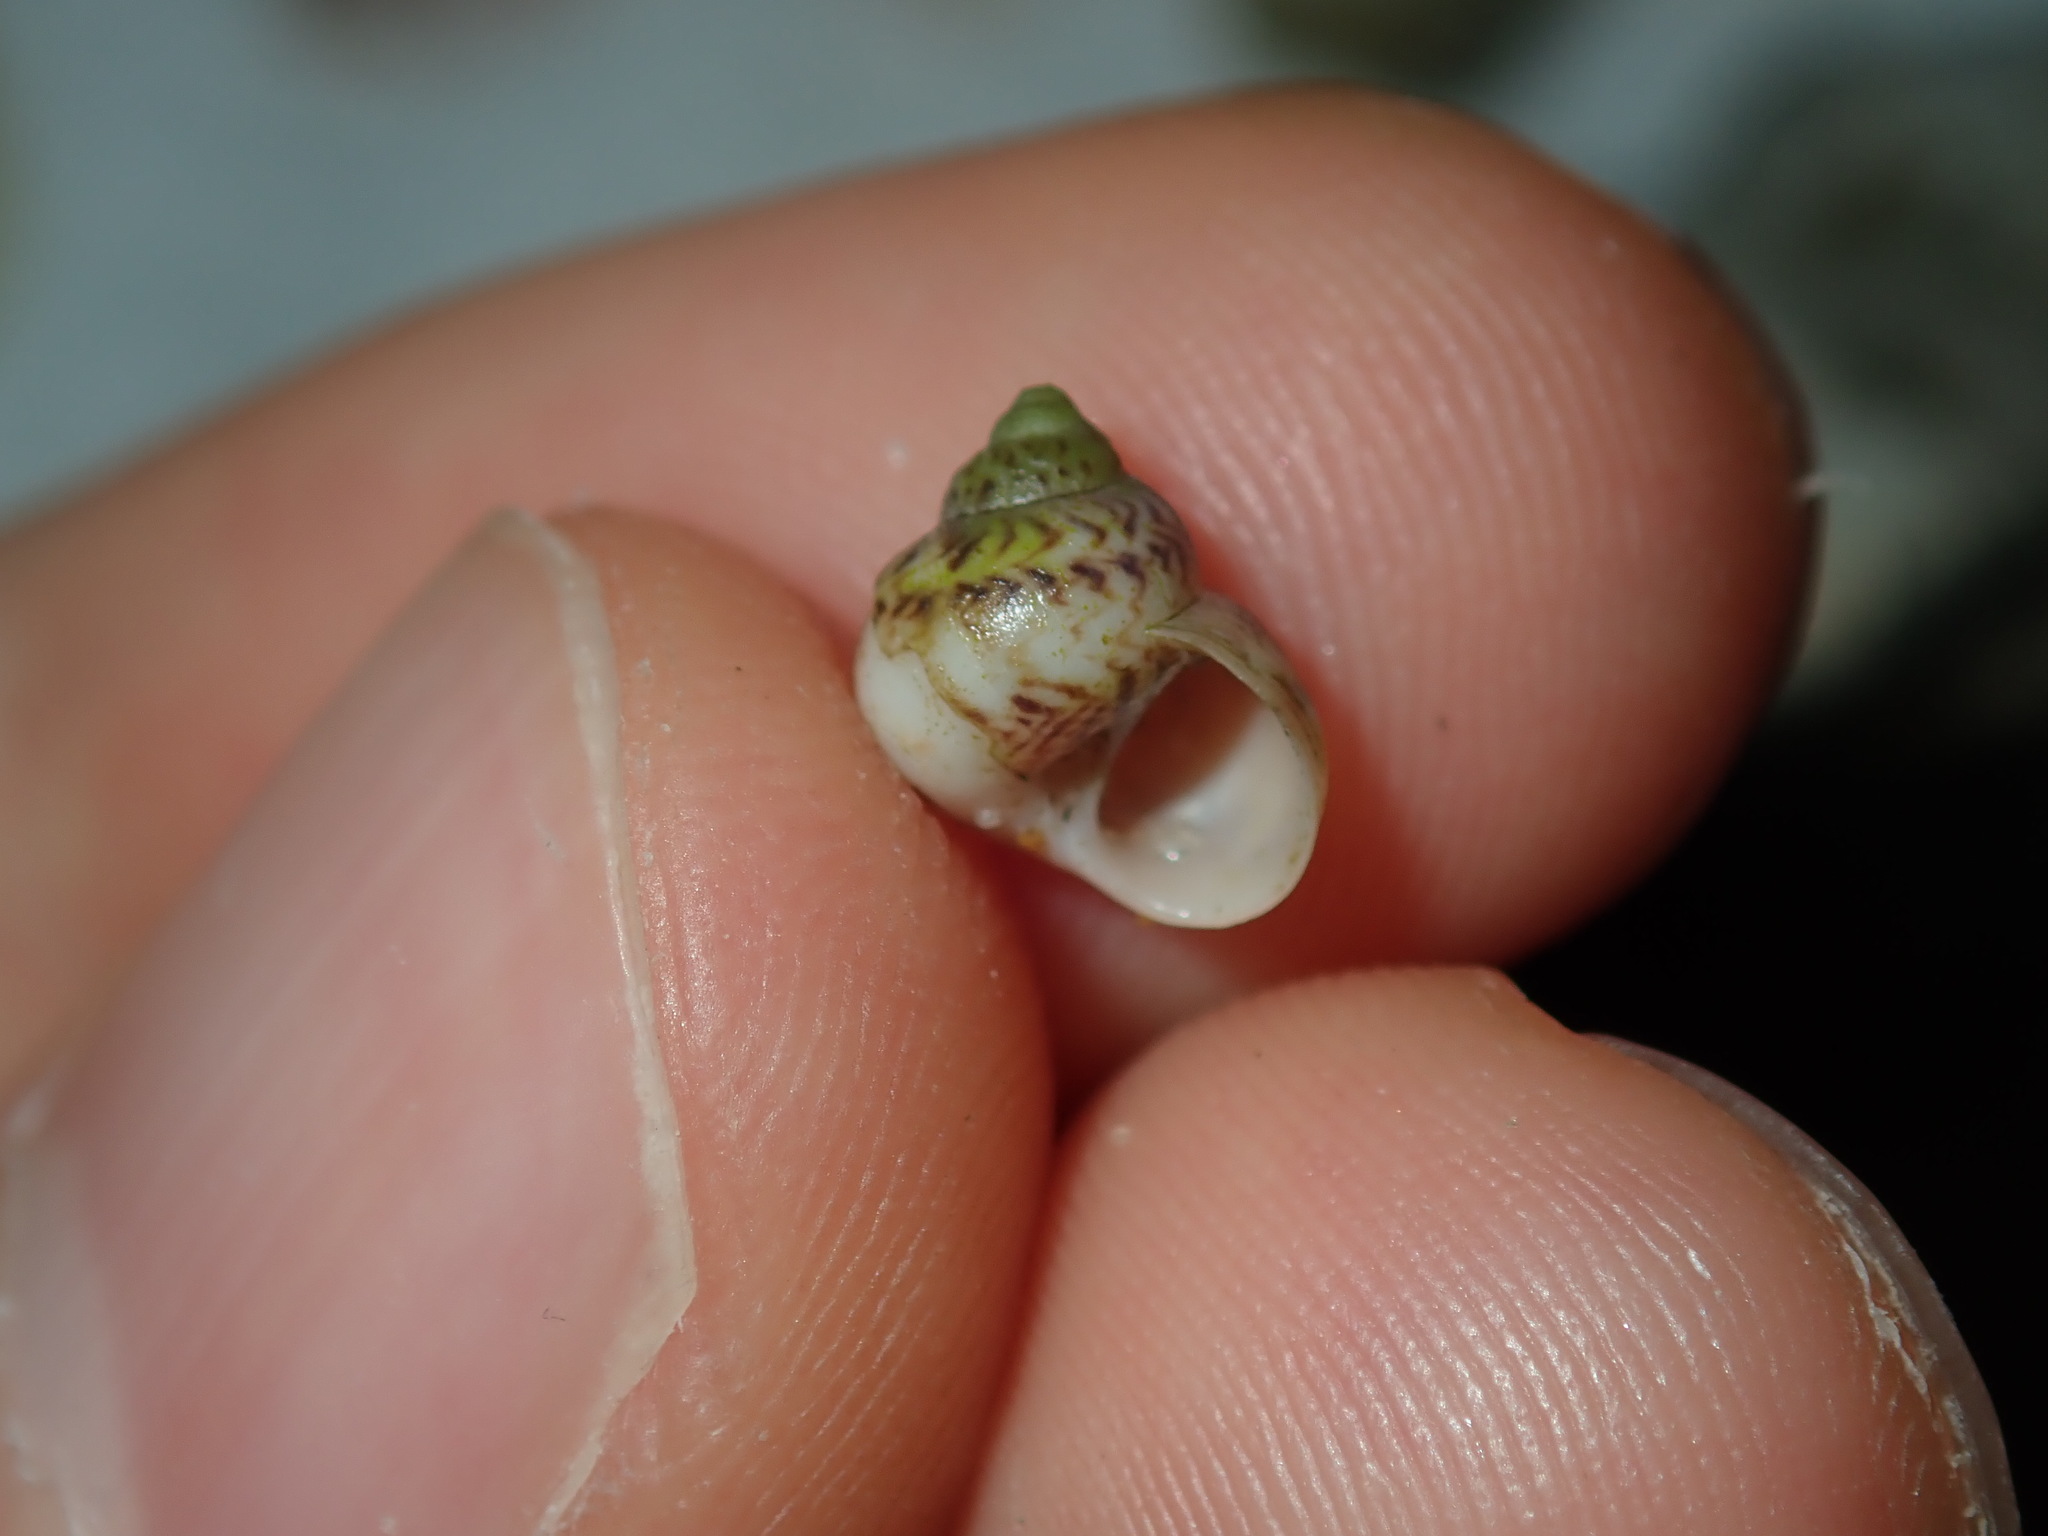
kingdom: Animalia
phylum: Mollusca
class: Gastropoda
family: Amphibolidae
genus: Phallomedusa
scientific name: Phallomedusa solida
